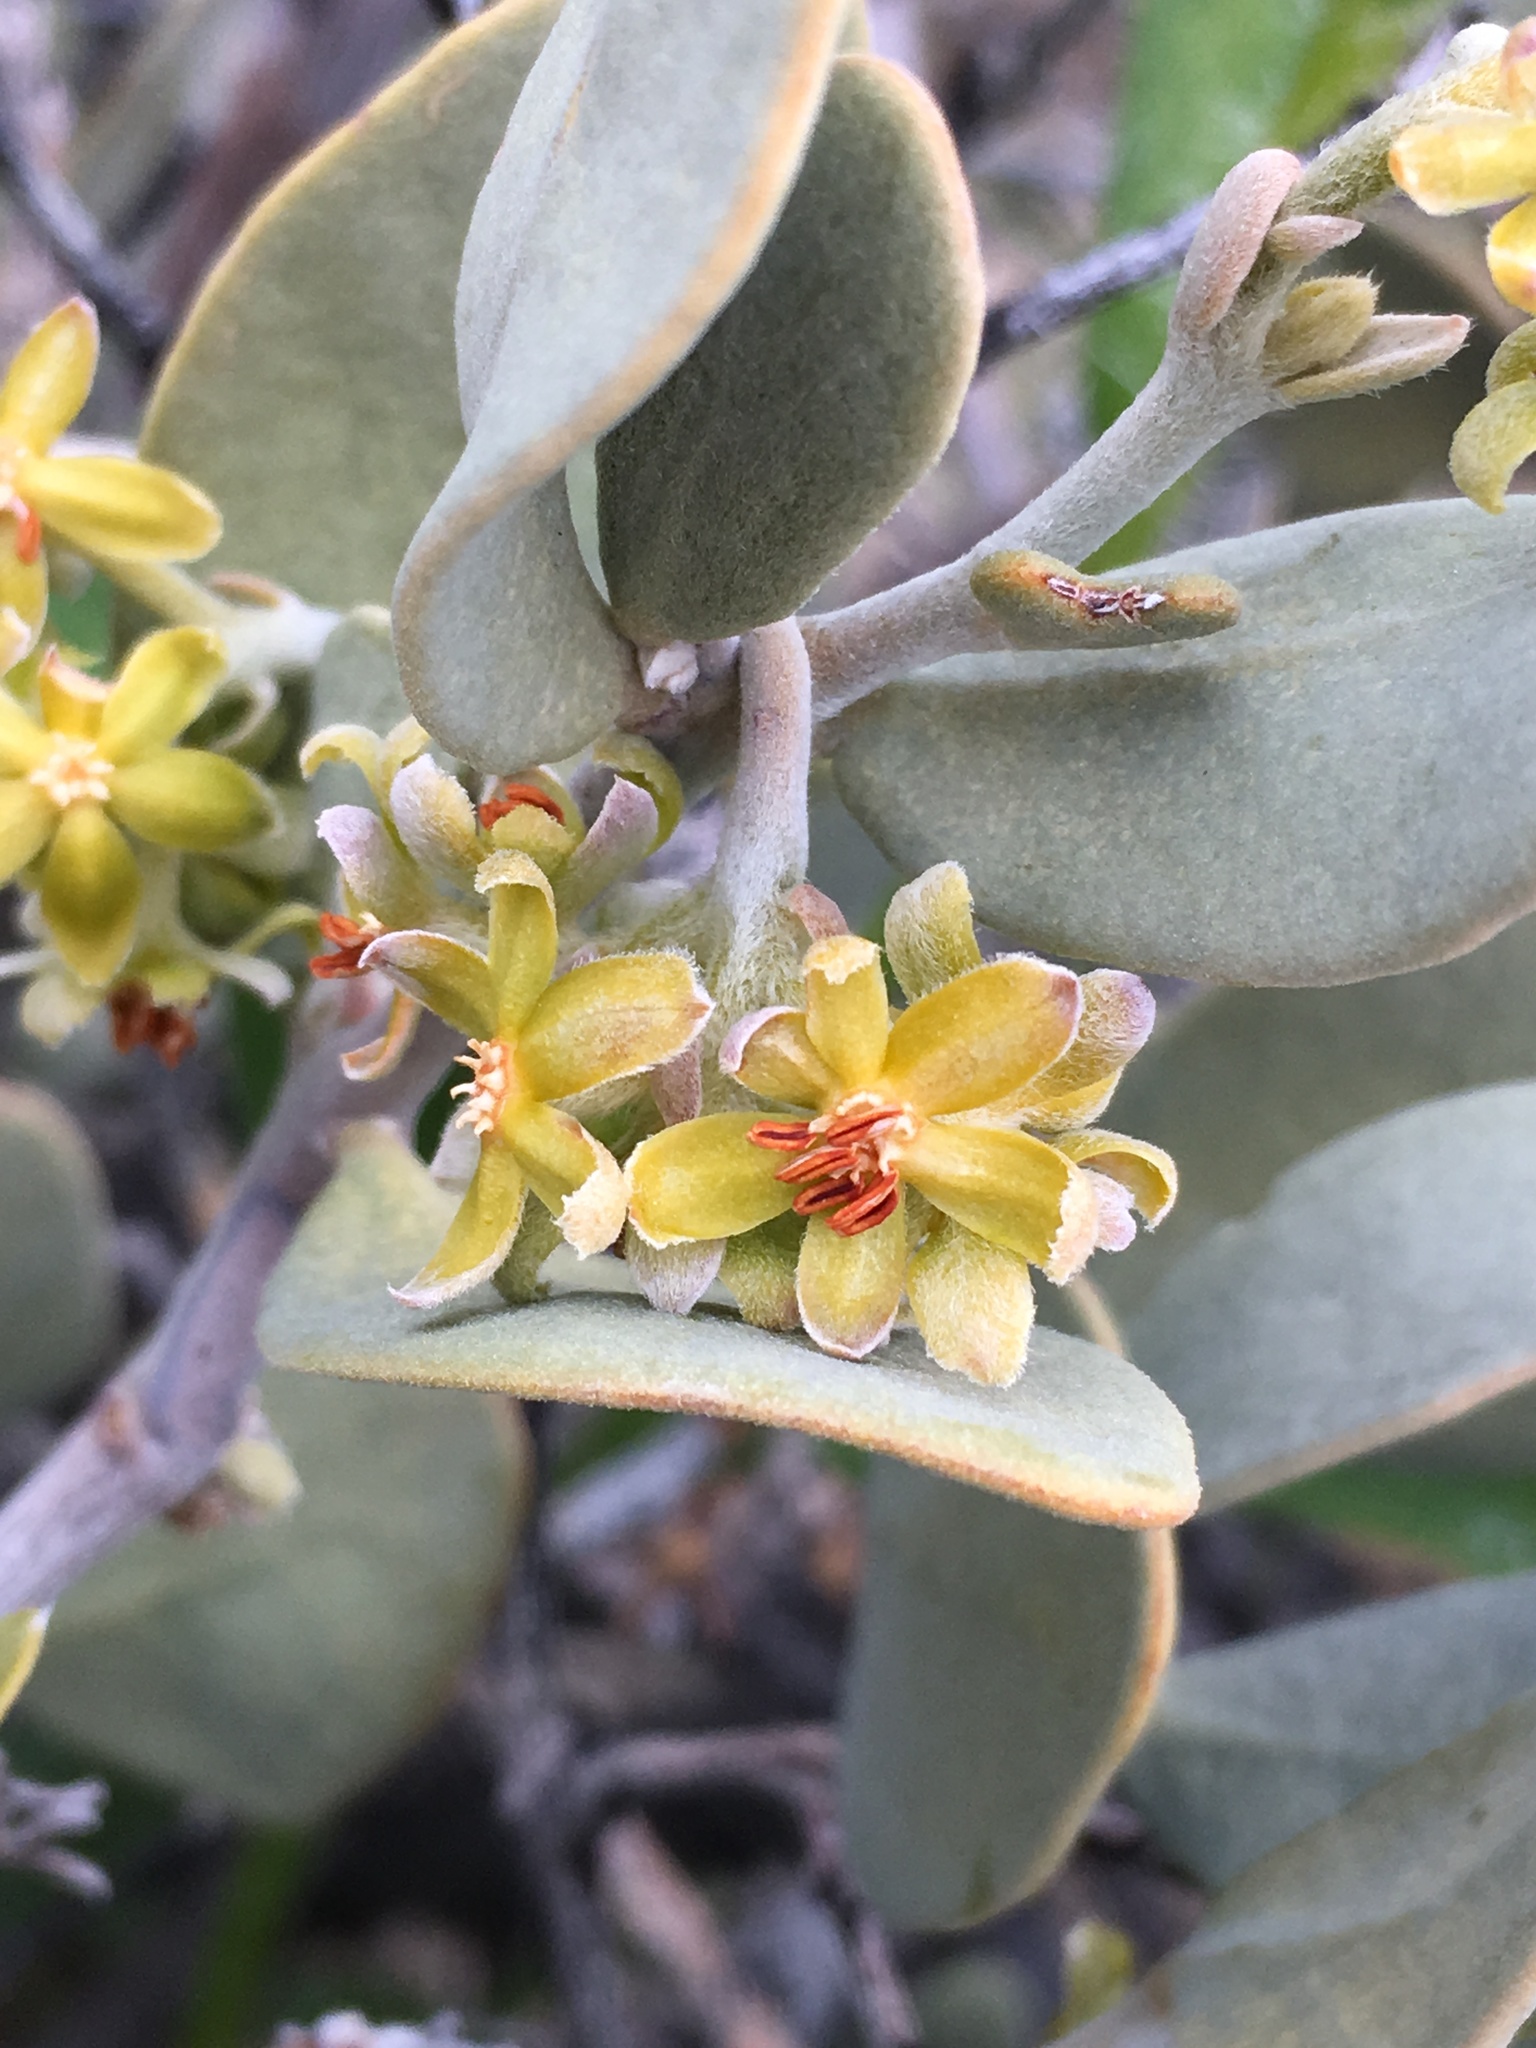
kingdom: Plantae
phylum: Tracheophyta
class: Magnoliopsida
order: Caryophyllales
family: Simmondsiaceae
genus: Simmondsia
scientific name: Simmondsia chinensis
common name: Jojoba
